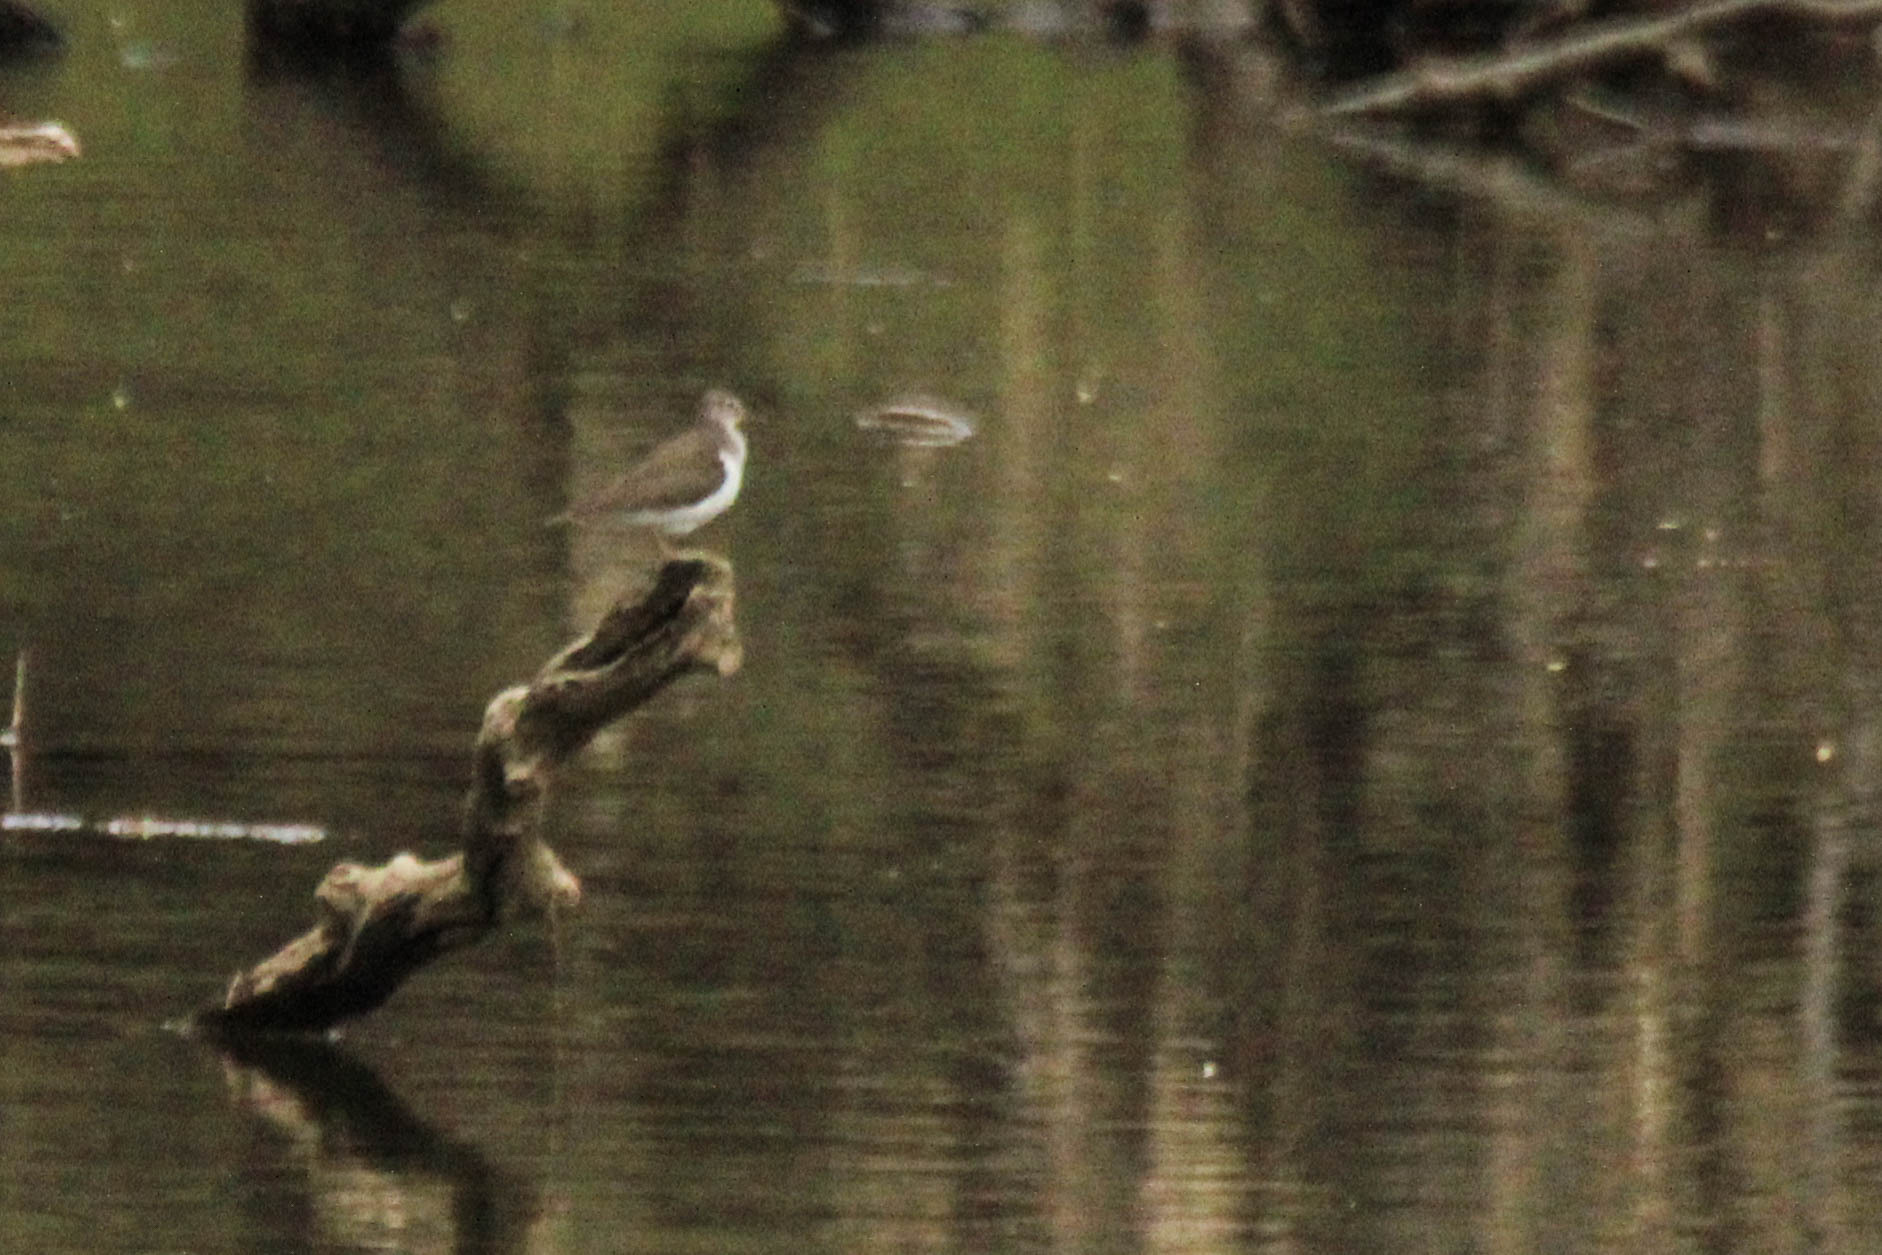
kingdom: Animalia
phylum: Chordata
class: Aves
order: Charadriiformes
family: Scolopacidae
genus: Actitis
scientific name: Actitis hypoleucos
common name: Common sandpiper
